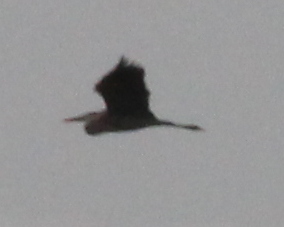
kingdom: Animalia
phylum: Chordata
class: Aves
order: Pelecaniformes
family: Ardeidae
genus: Ardea
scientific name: Ardea herodias
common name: Great blue heron
